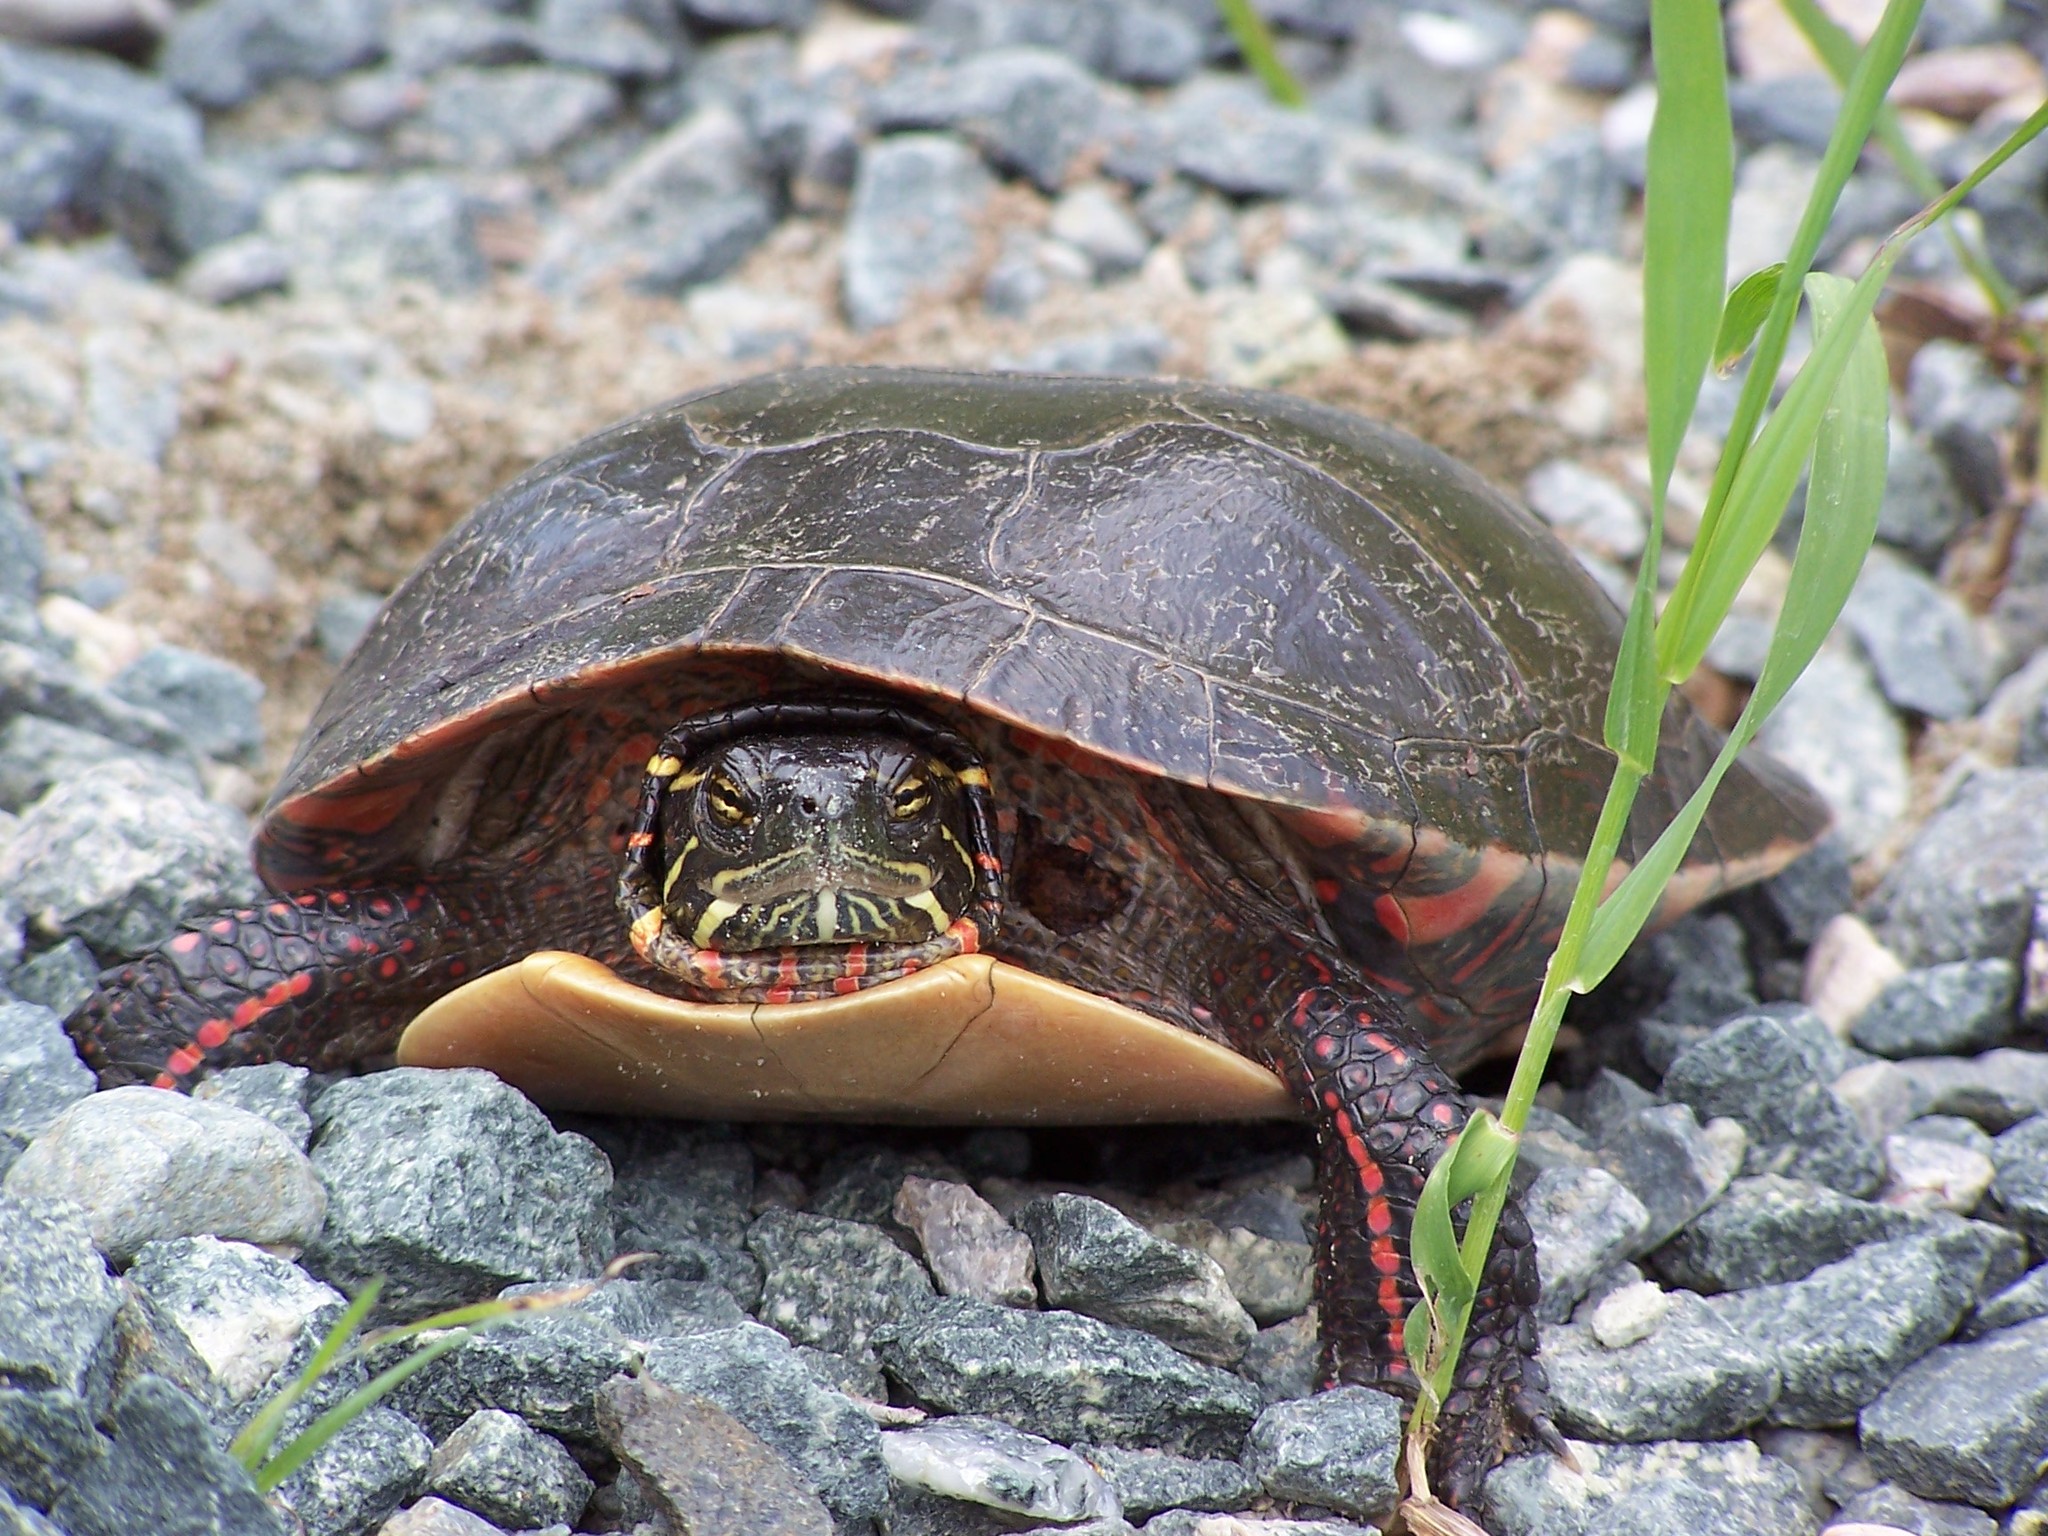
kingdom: Animalia
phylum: Chordata
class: Testudines
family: Emydidae
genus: Chrysemys
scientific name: Chrysemys picta
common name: Painted turtle
